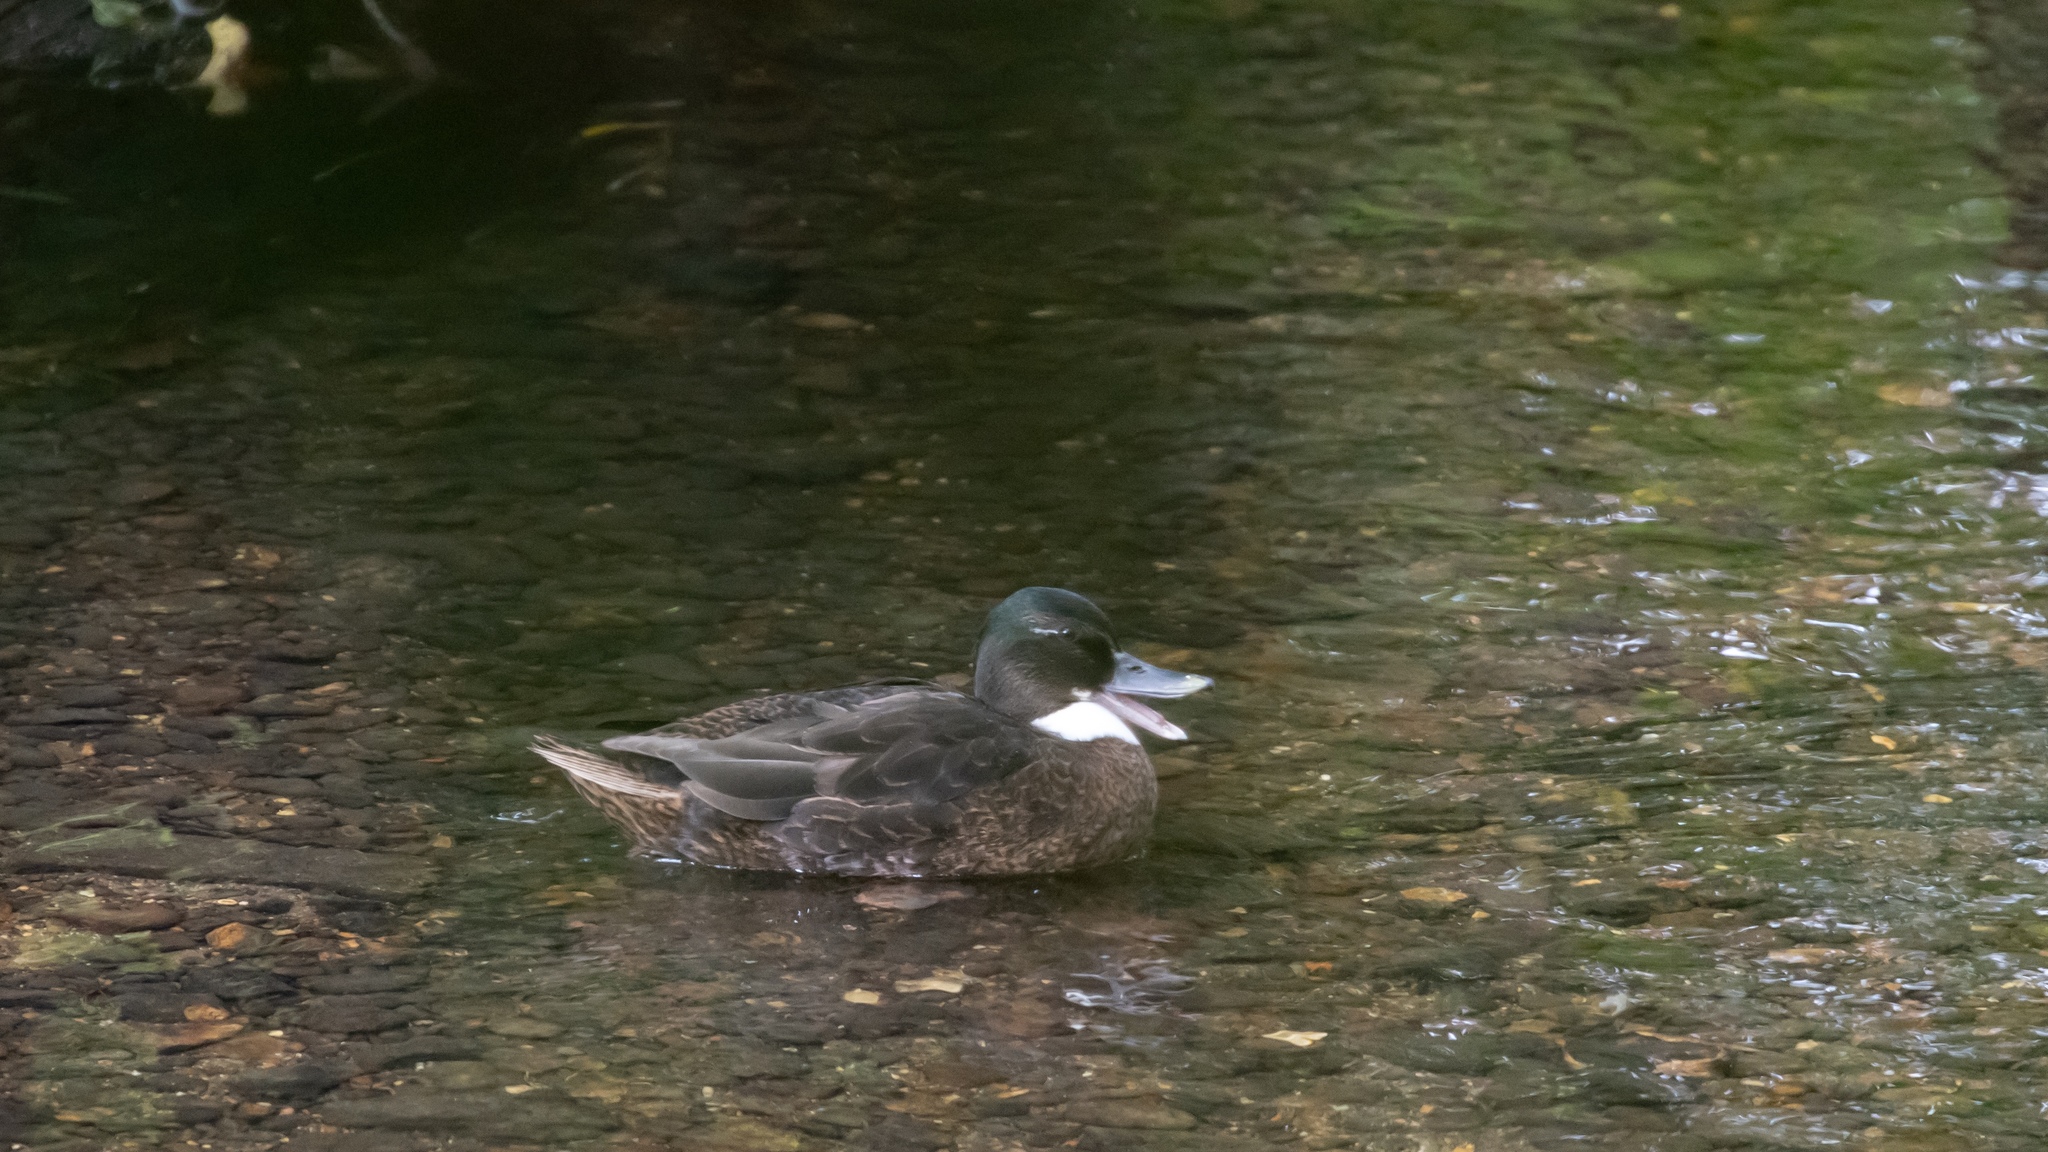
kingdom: Animalia
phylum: Chordata
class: Aves
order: Anseriformes
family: Anatidae
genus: Anas
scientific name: Anas platyrhynchos
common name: Mallard
